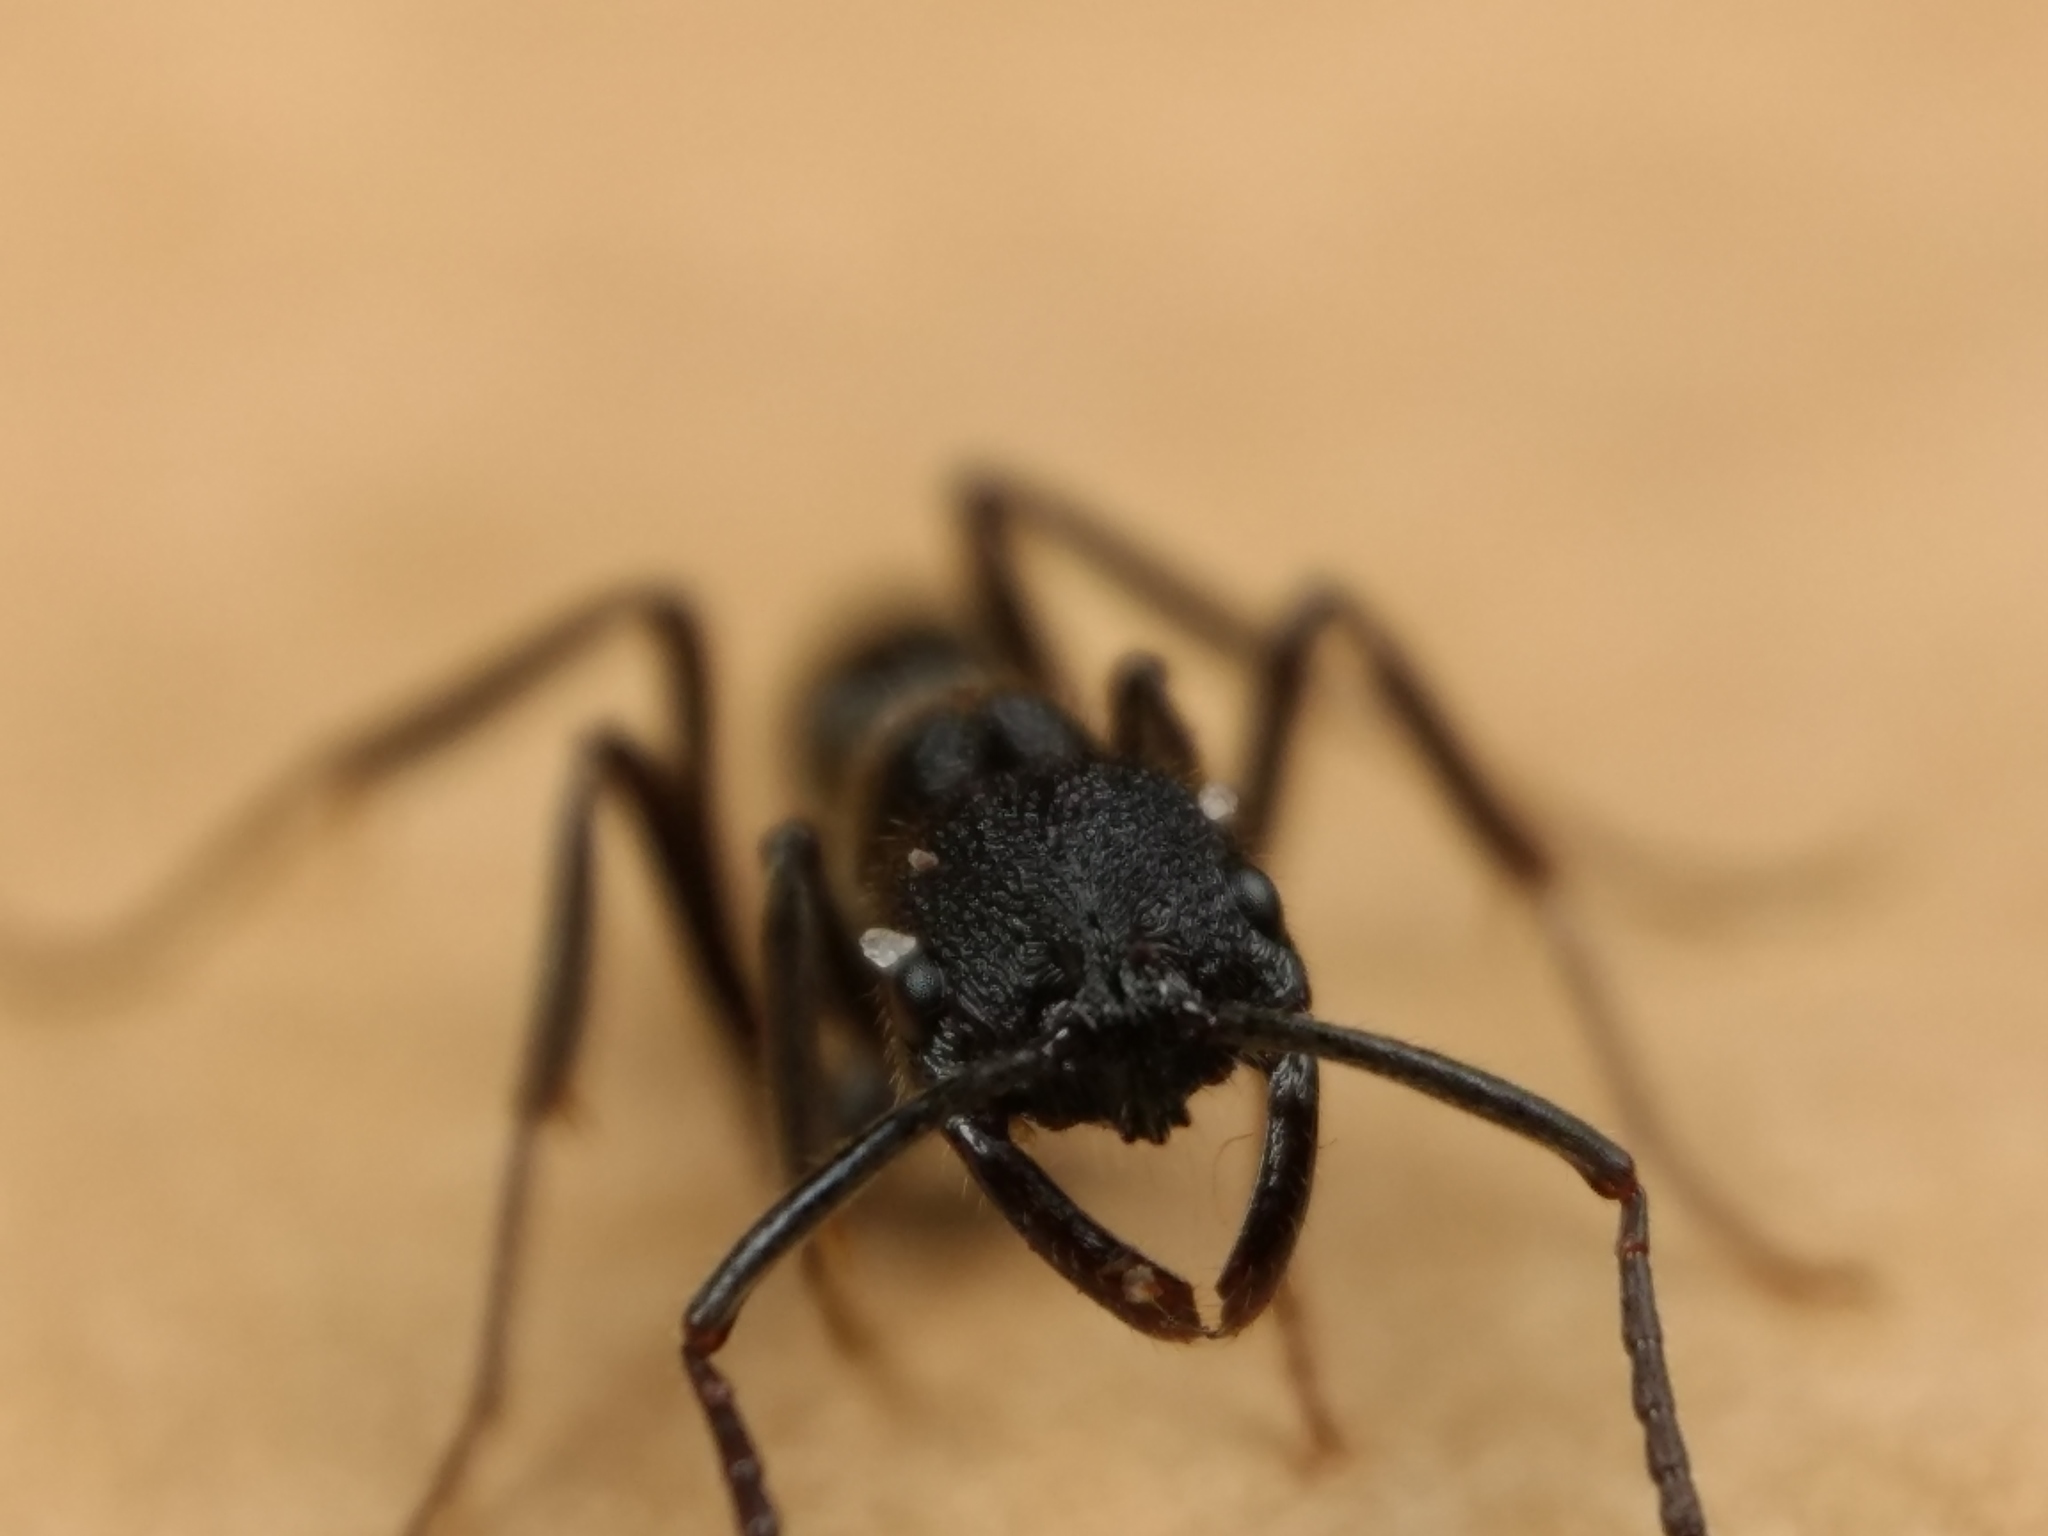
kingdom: Animalia
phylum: Arthropoda
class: Insecta
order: Hymenoptera
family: Formicidae
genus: Leptogenys
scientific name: Leptogenys sjostedti
